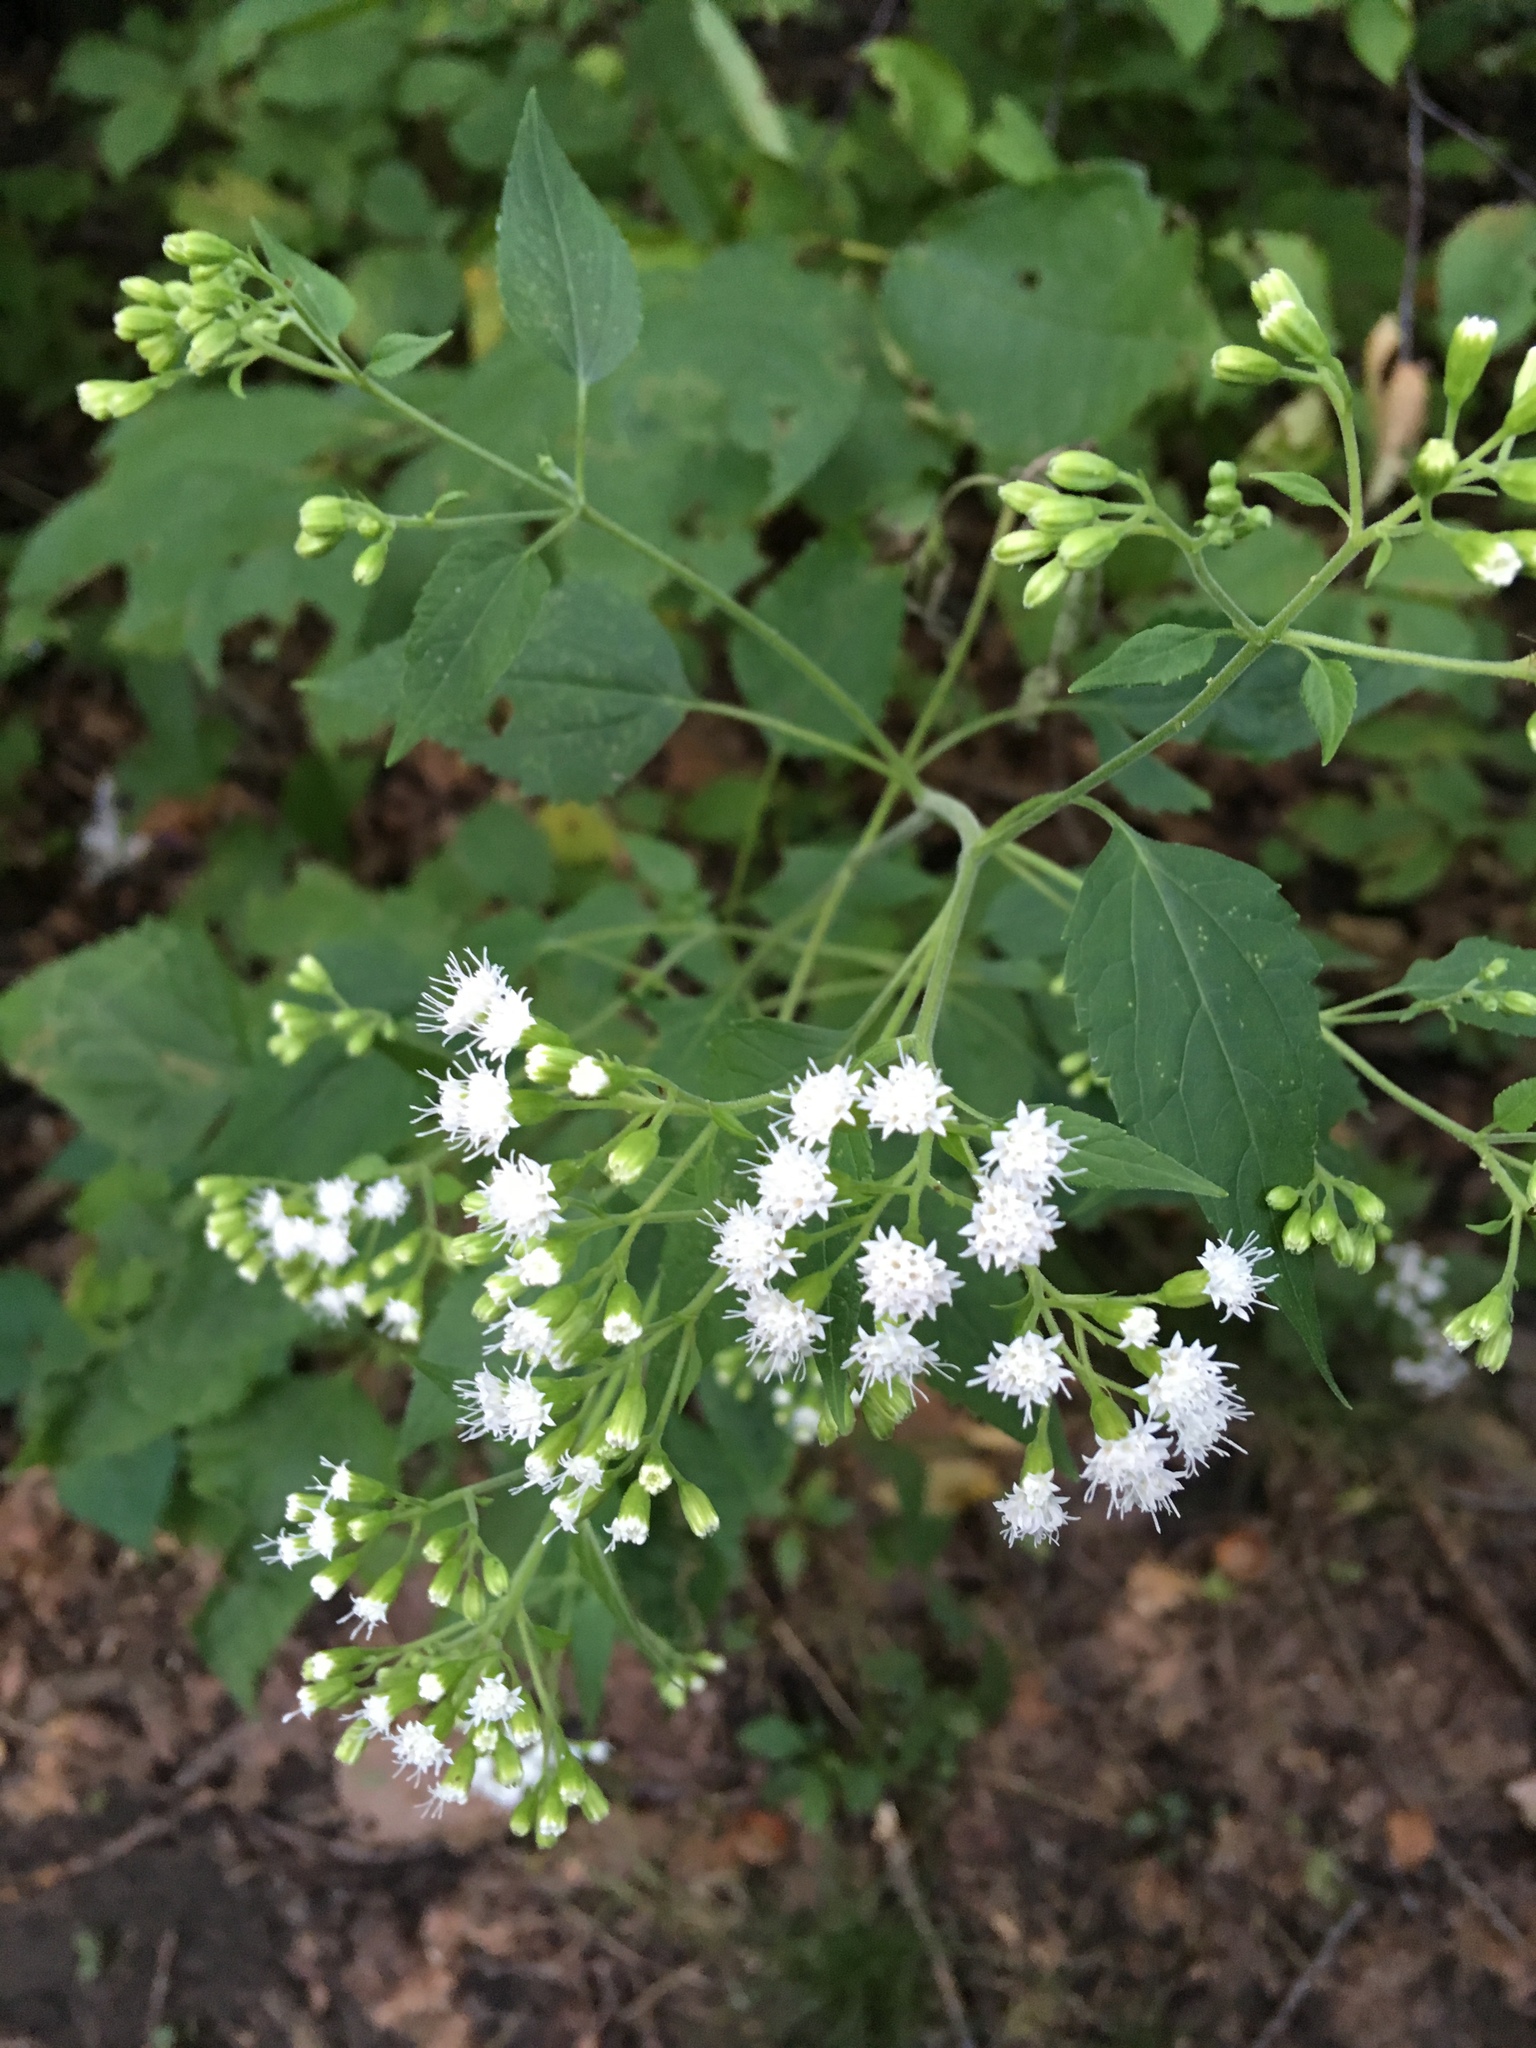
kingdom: Plantae
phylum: Tracheophyta
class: Magnoliopsida
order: Asterales
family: Asteraceae
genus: Ageratina
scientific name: Ageratina altissima
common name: White snakeroot
